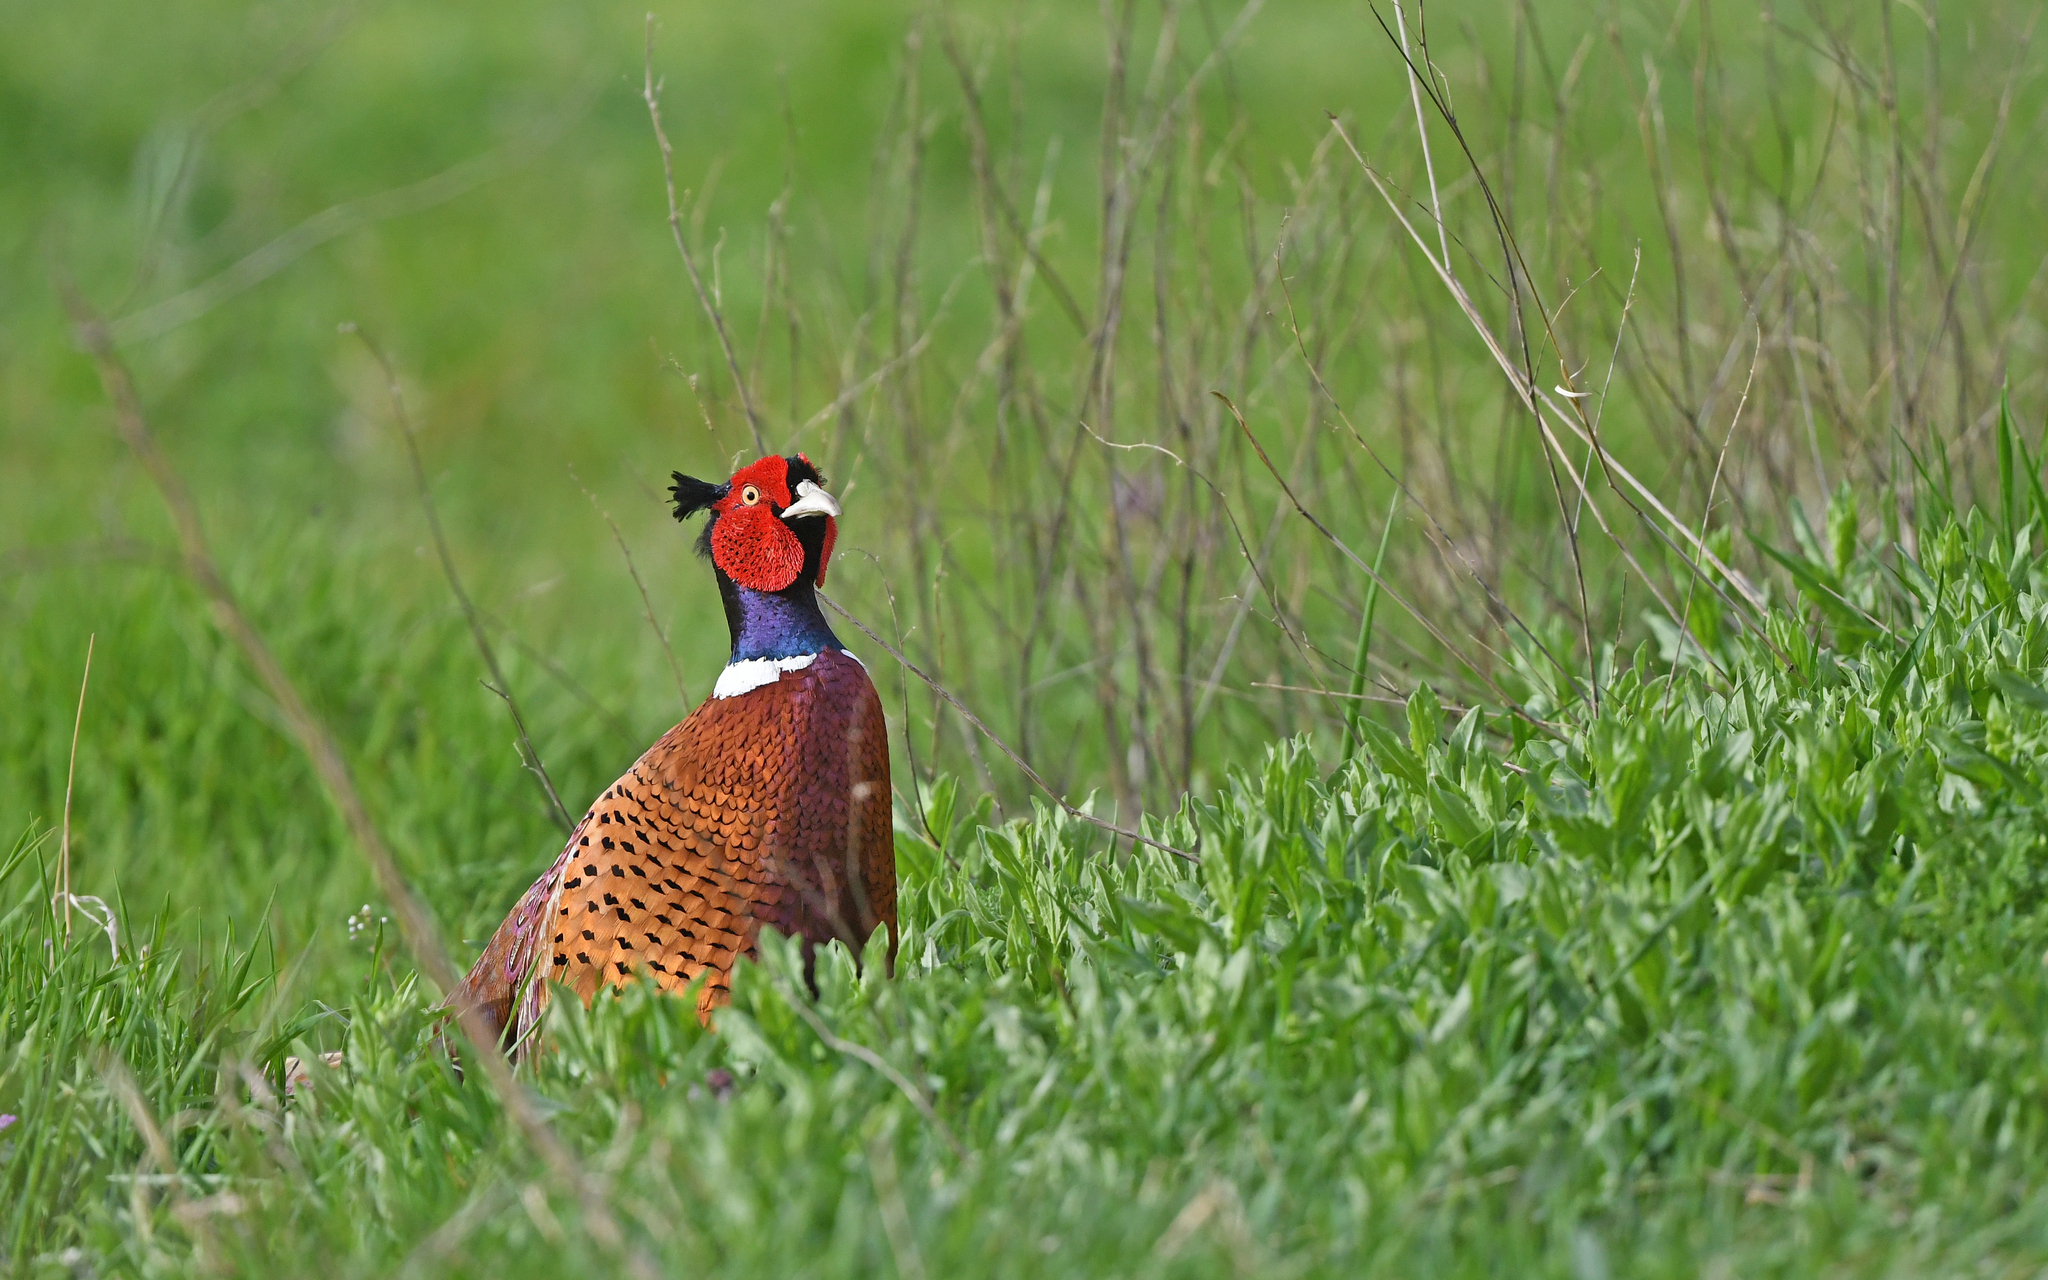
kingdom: Animalia
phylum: Chordata
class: Aves
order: Galliformes
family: Phasianidae
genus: Phasianus
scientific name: Phasianus colchicus
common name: Common pheasant
